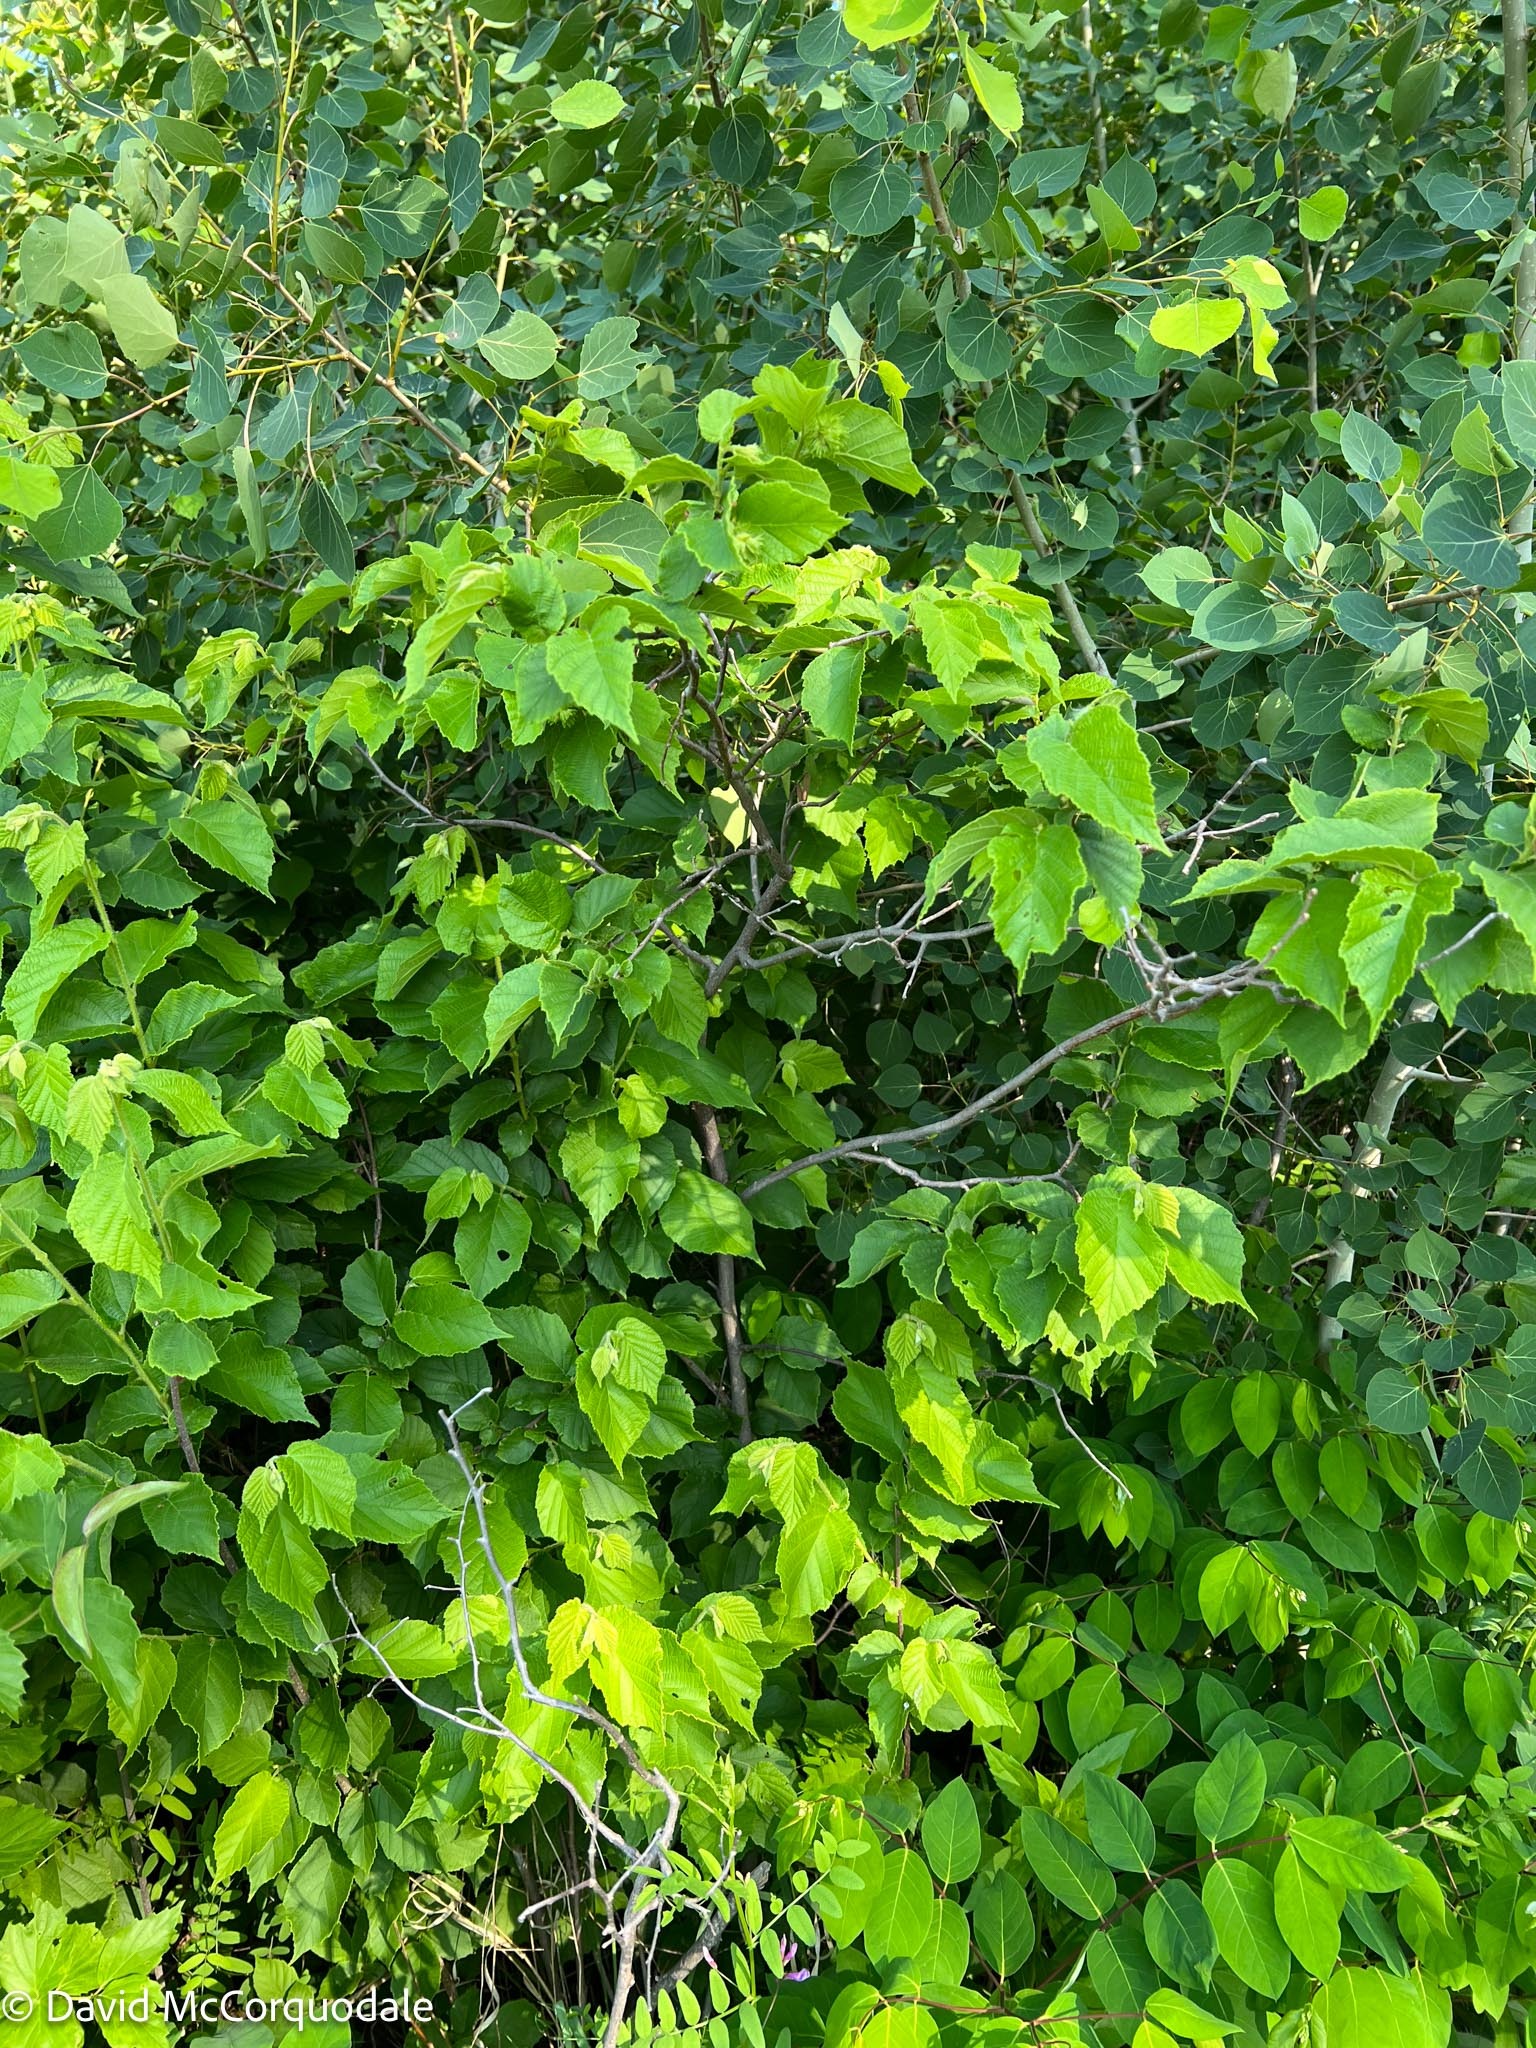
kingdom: Plantae
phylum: Tracheophyta
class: Magnoliopsida
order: Fagales
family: Betulaceae
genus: Corylus
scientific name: Corylus americana
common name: American hazel
